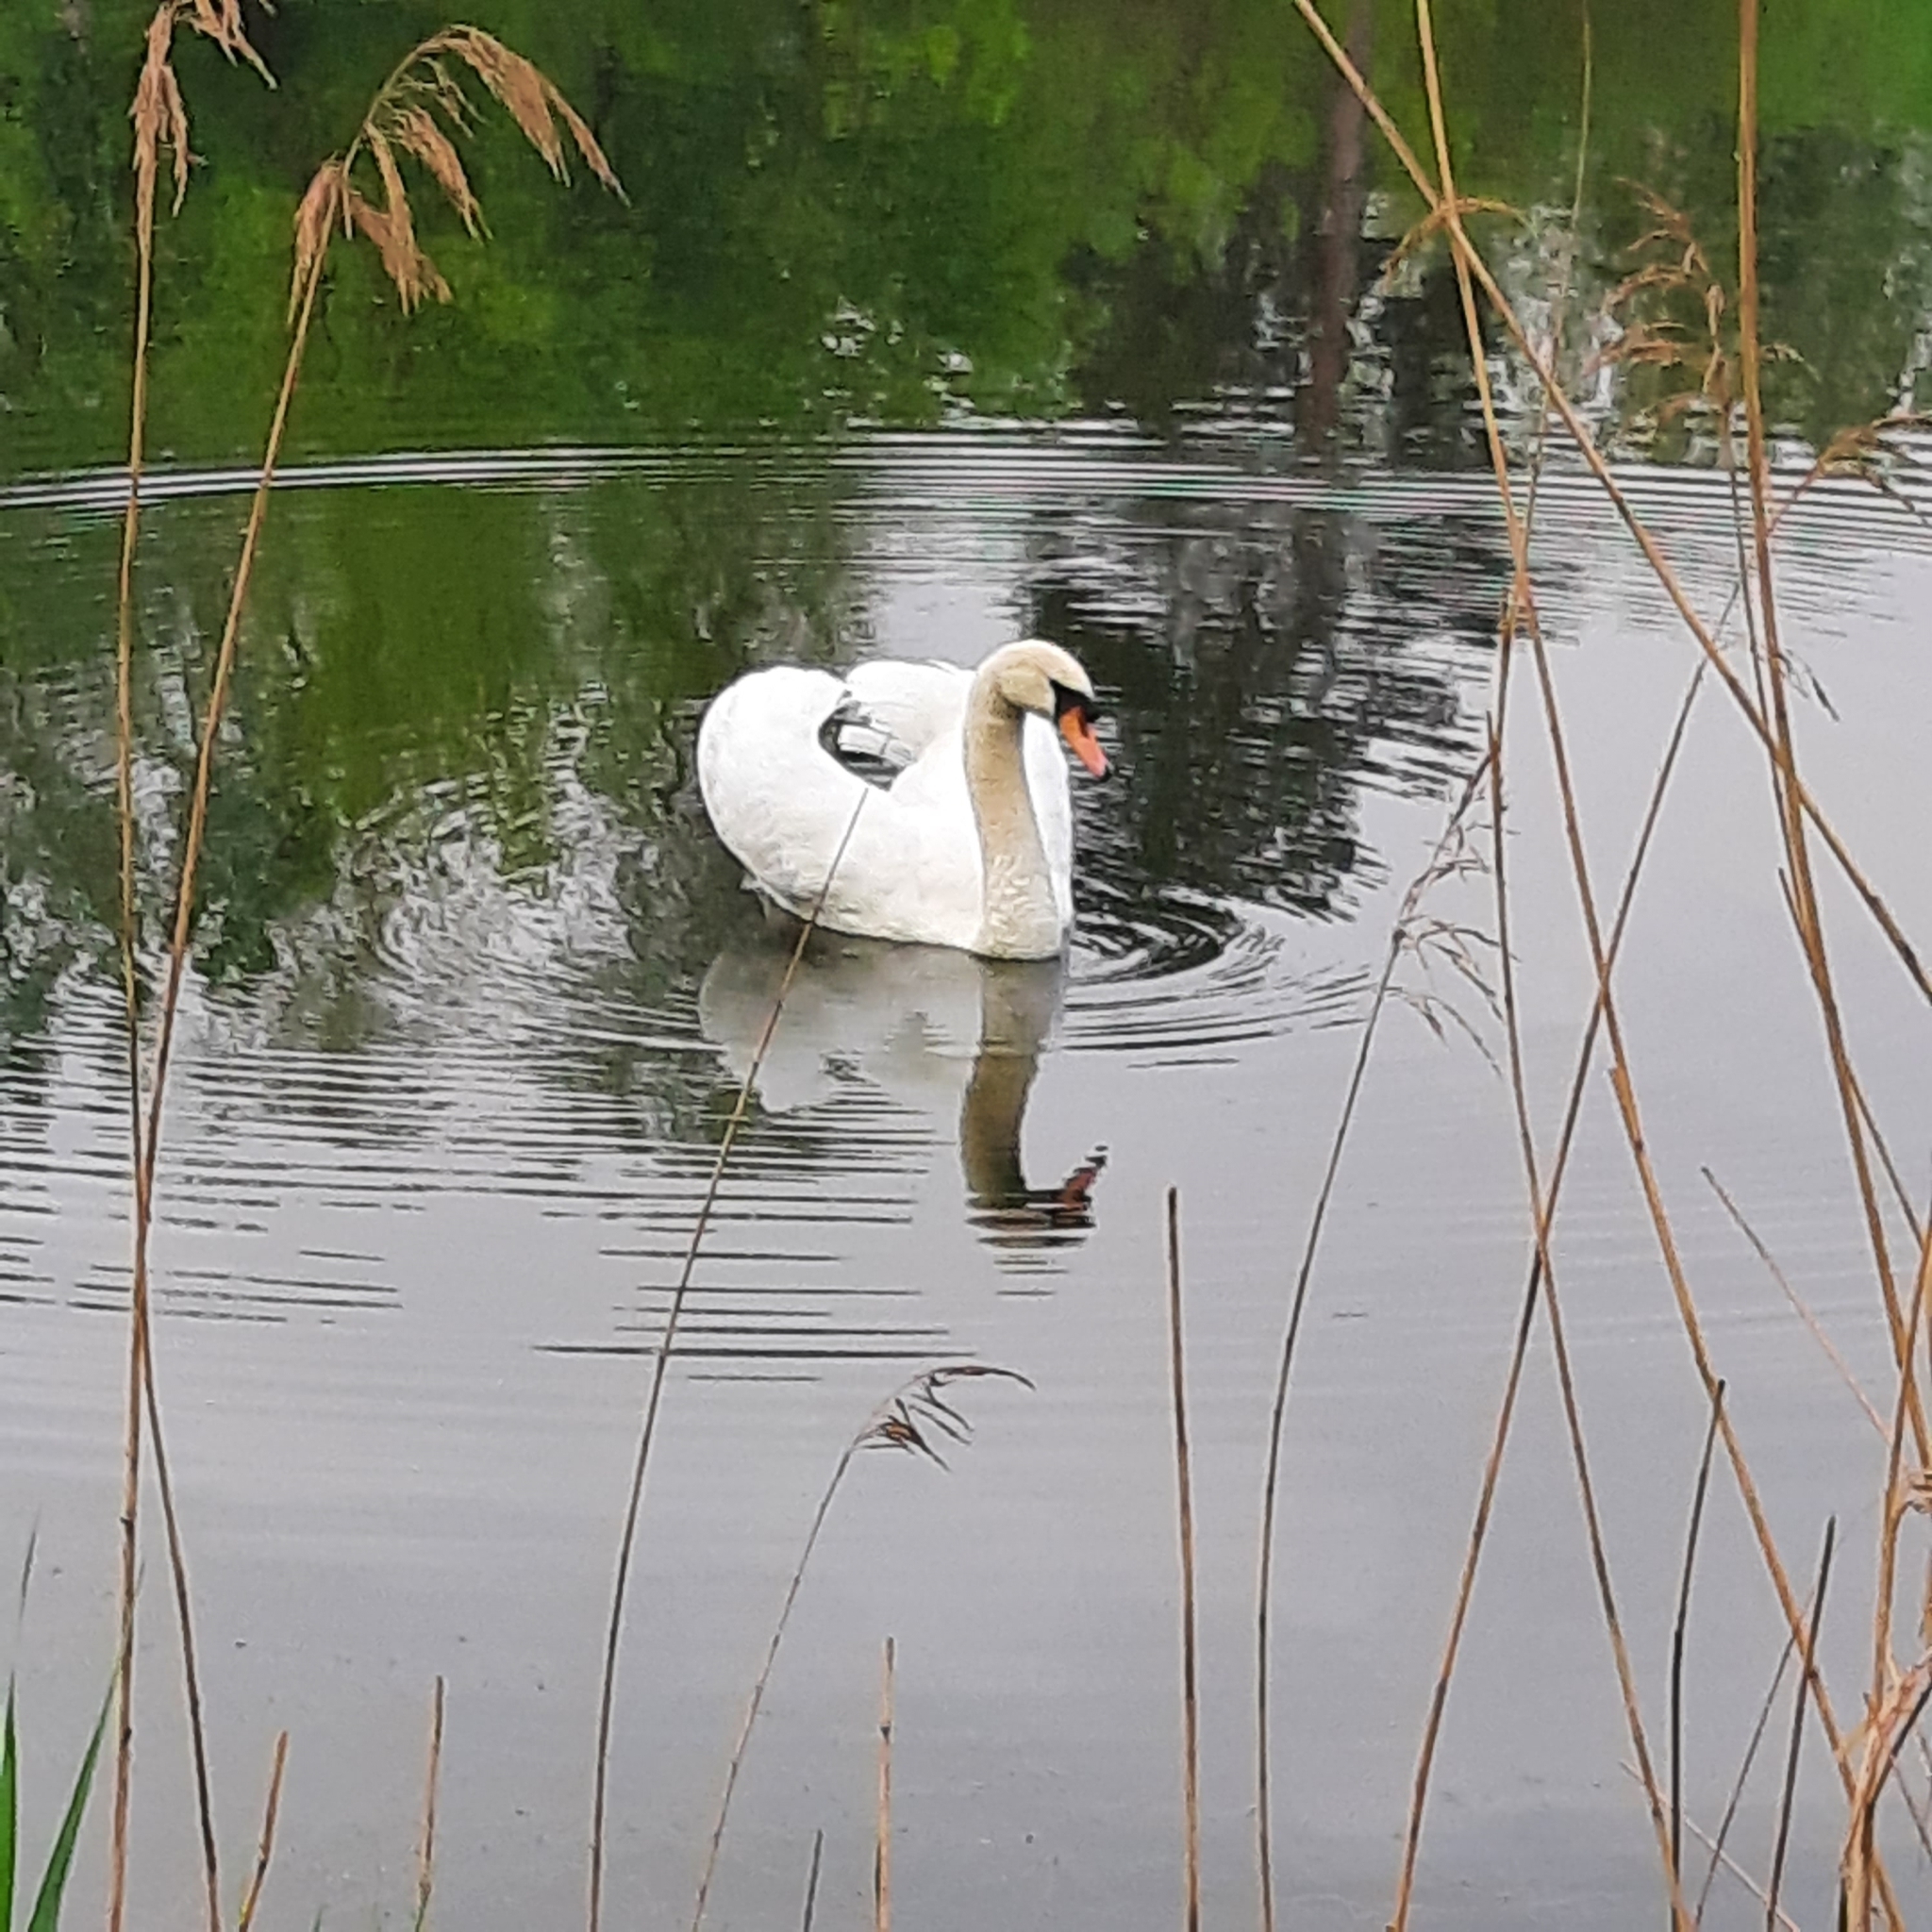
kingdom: Animalia
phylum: Chordata
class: Aves
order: Anseriformes
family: Anatidae
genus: Cygnus
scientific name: Cygnus olor
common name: Mute swan
